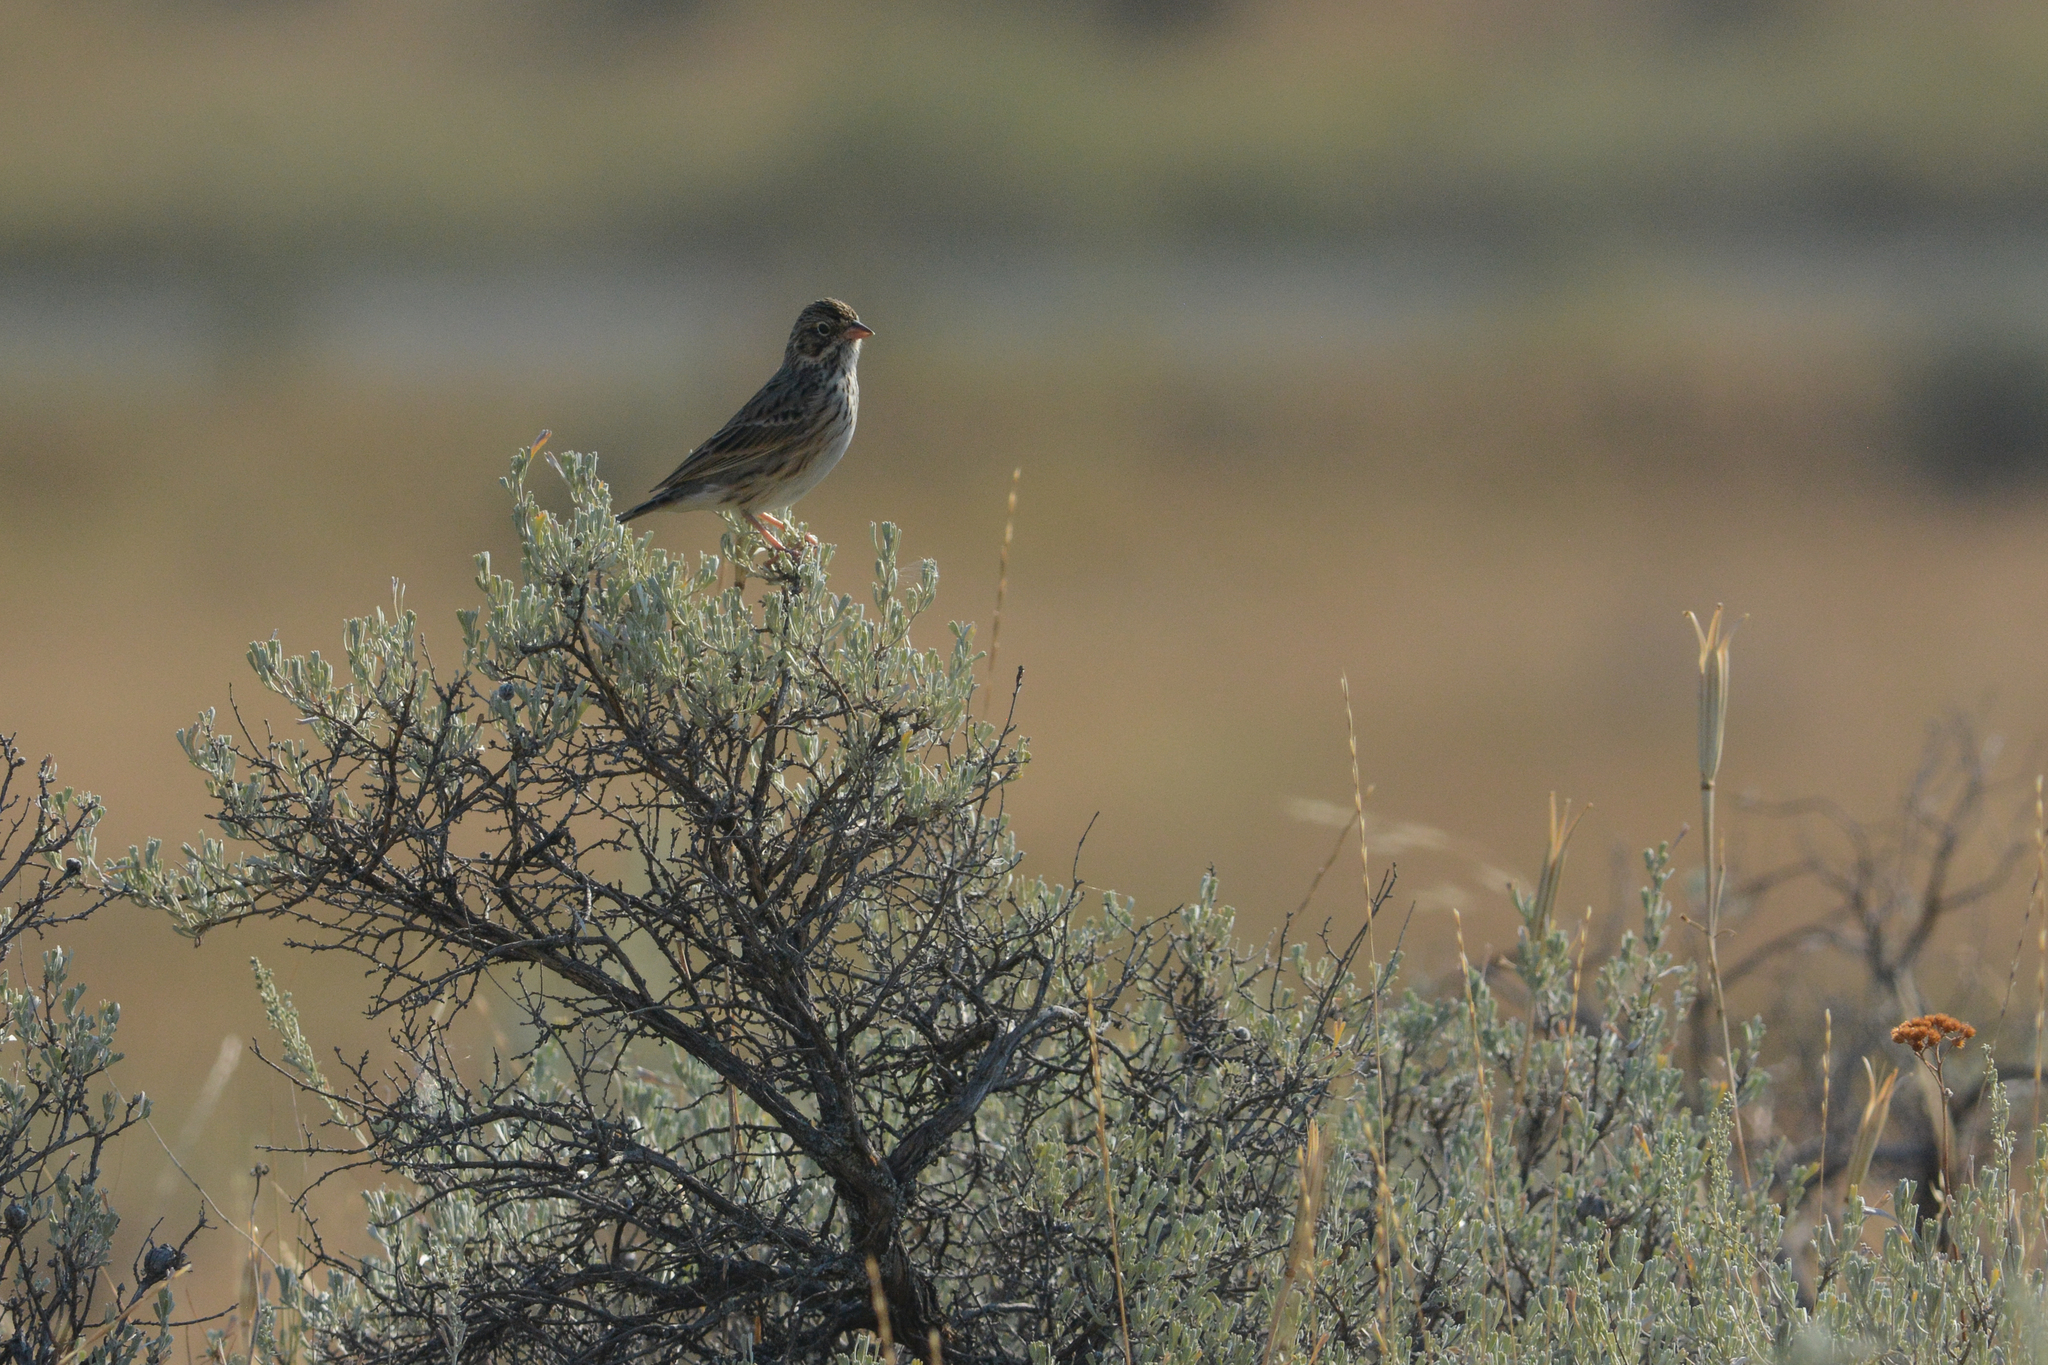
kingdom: Animalia
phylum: Chordata
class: Aves
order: Passeriformes
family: Passerellidae
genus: Pooecetes
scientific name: Pooecetes gramineus
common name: Vesper sparrow
